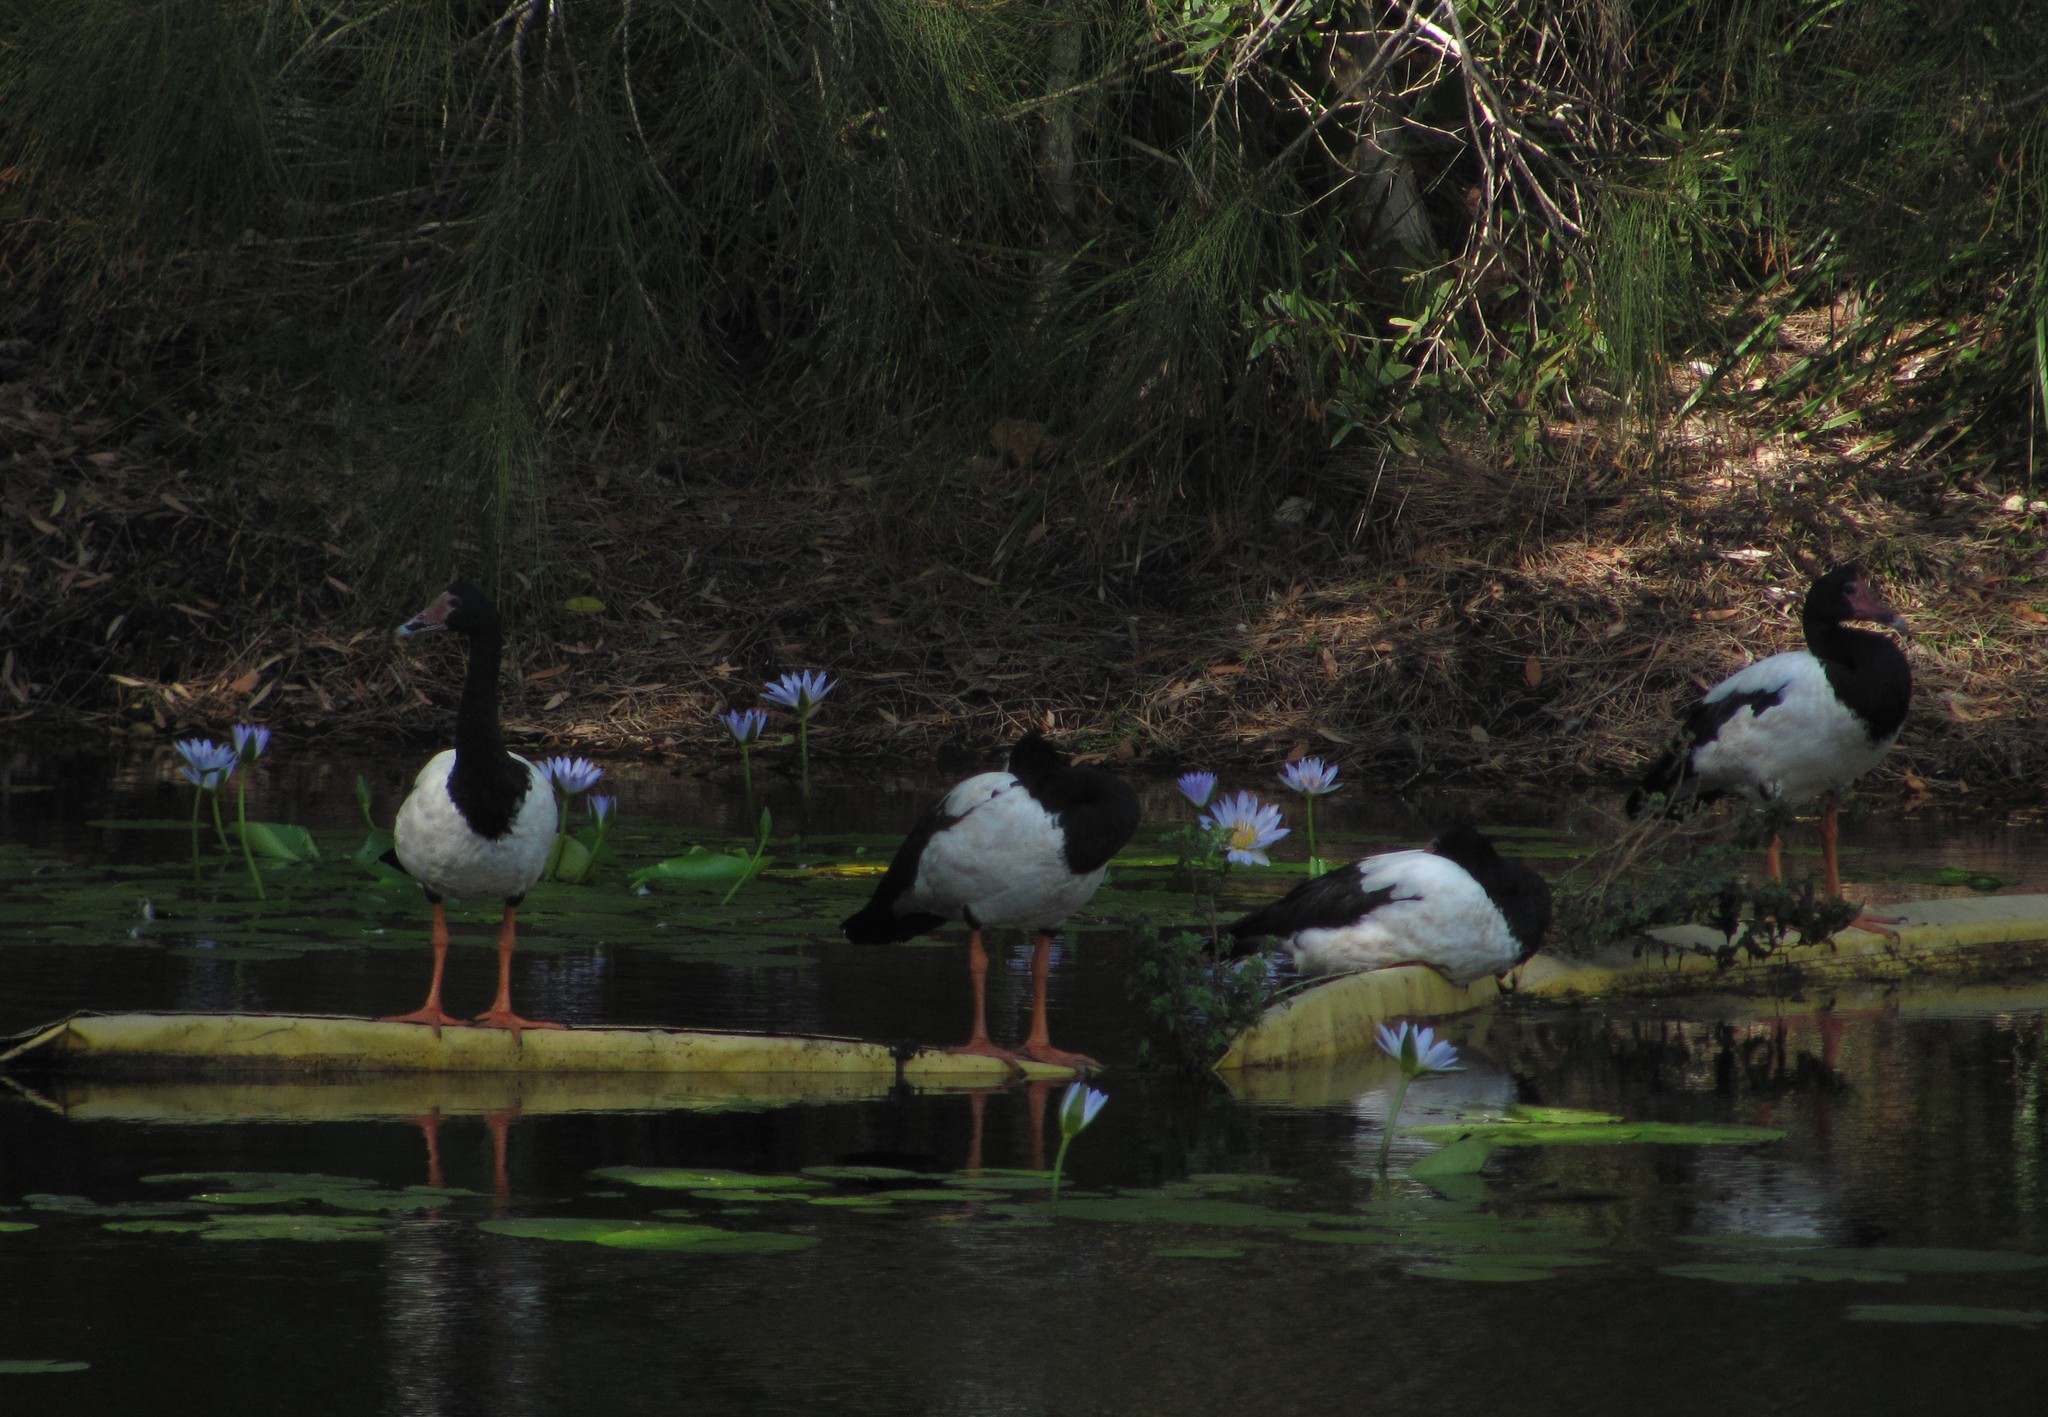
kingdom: Animalia
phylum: Chordata
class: Aves
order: Anseriformes
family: Anseranatidae
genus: Anseranas
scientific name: Anseranas semipalmata
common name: Magpie goose
